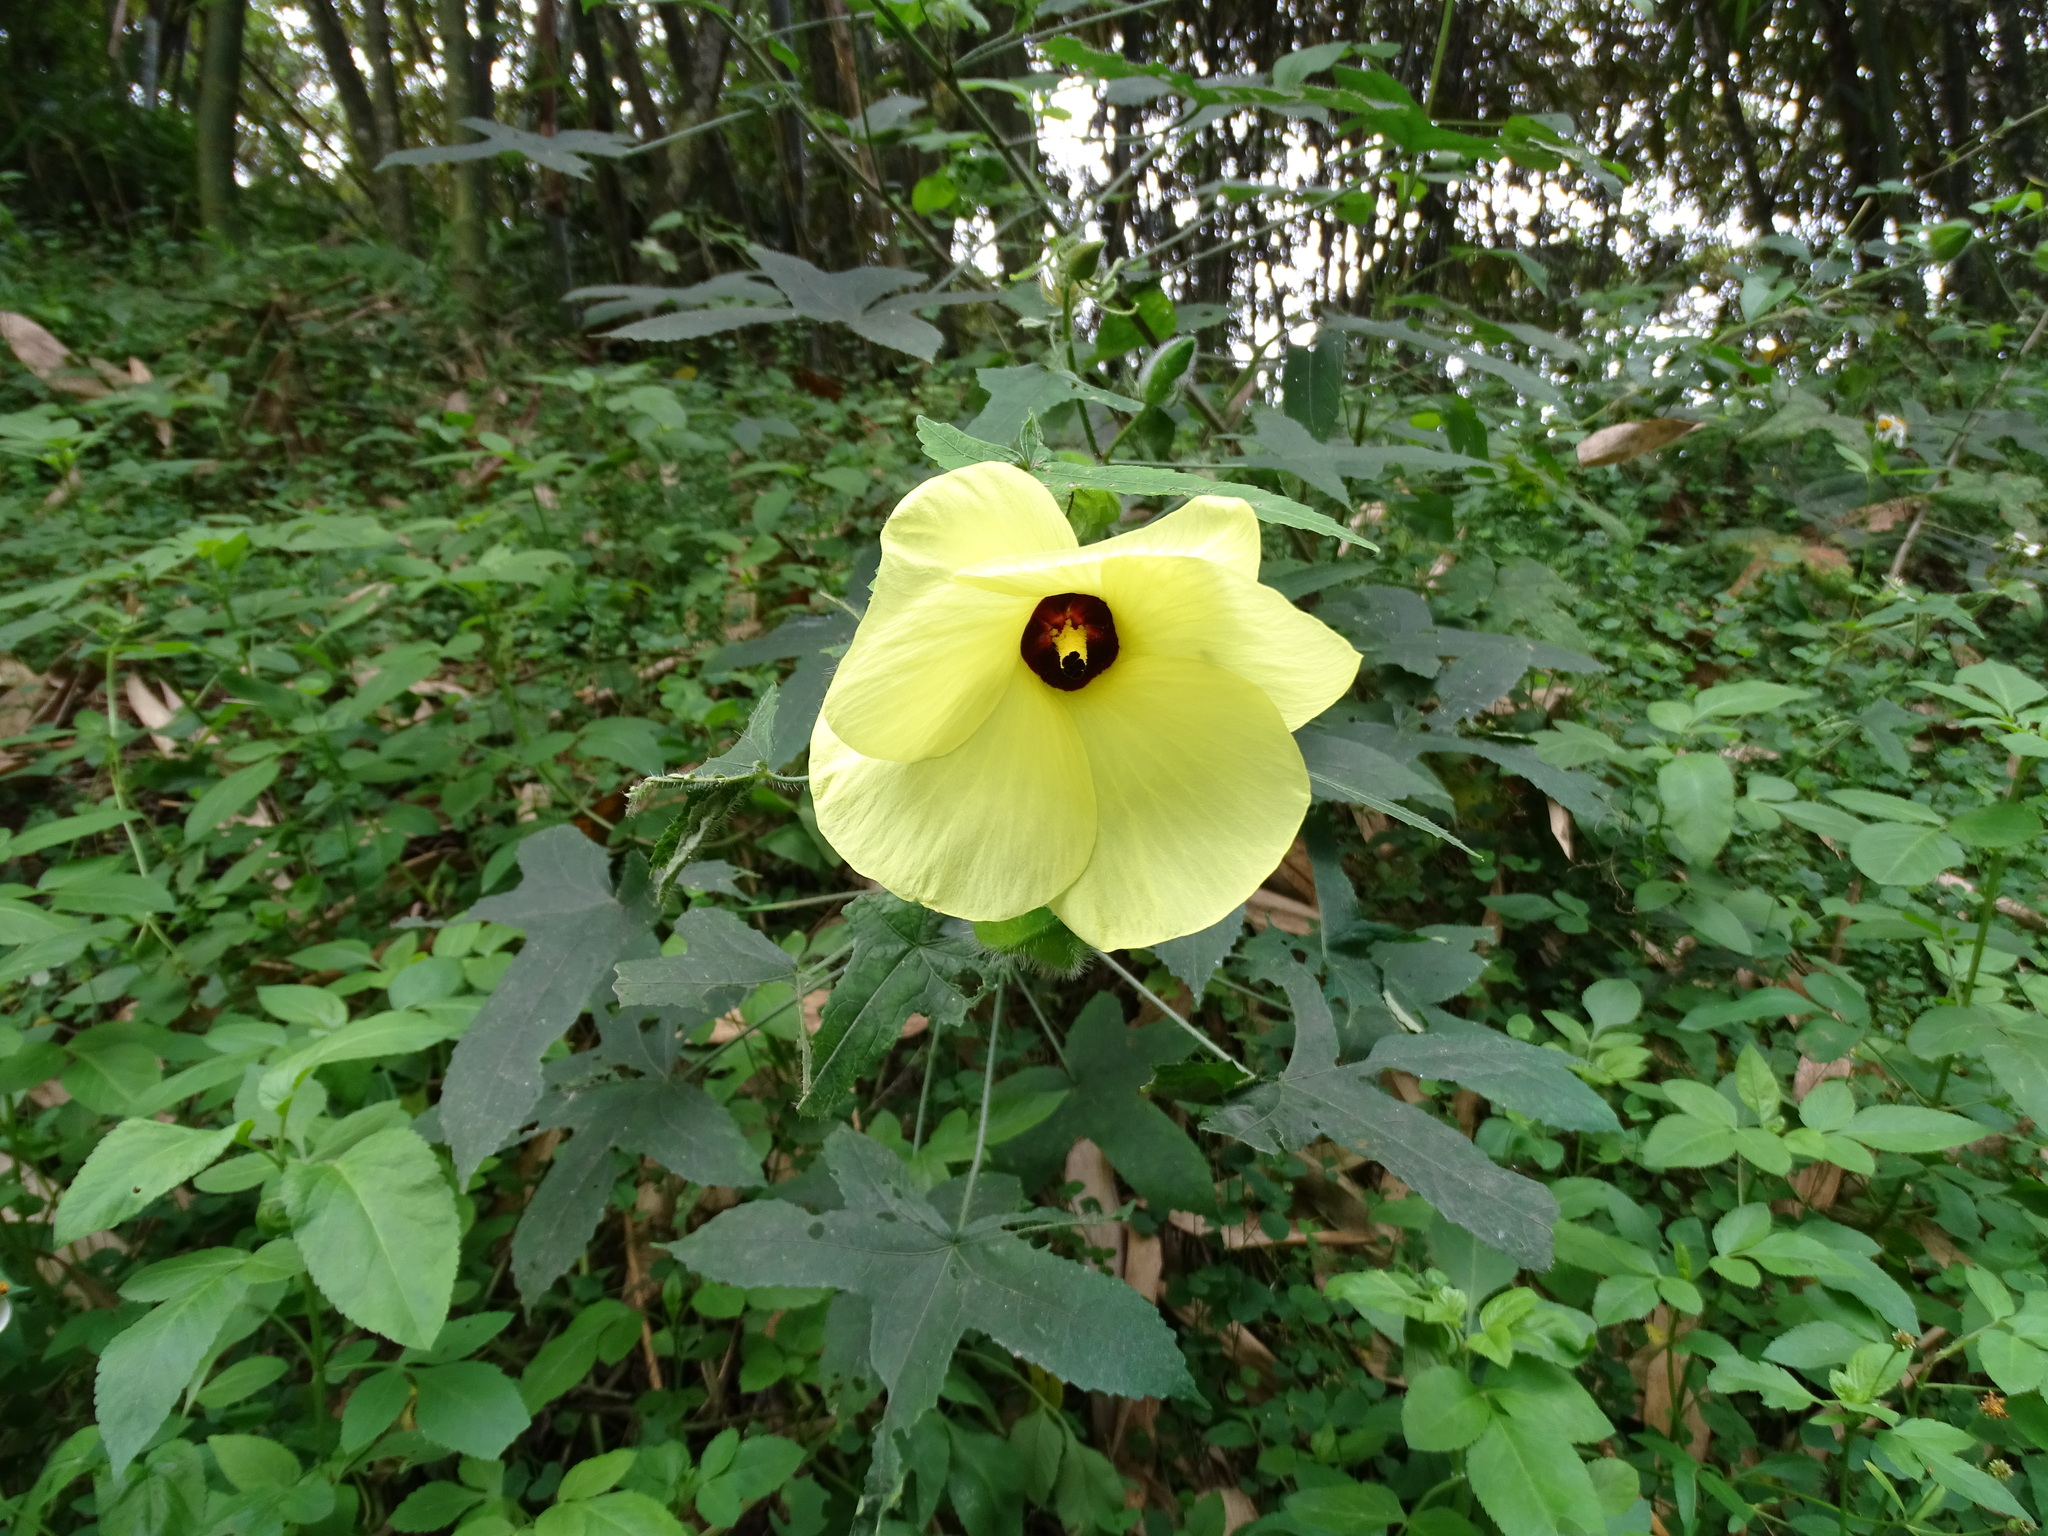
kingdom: Plantae
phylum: Tracheophyta
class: Magnoliopsida
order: Malvales
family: Malvaceae
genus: Abelmoschus
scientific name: Abelmoschus moschatus
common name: Musk okra
